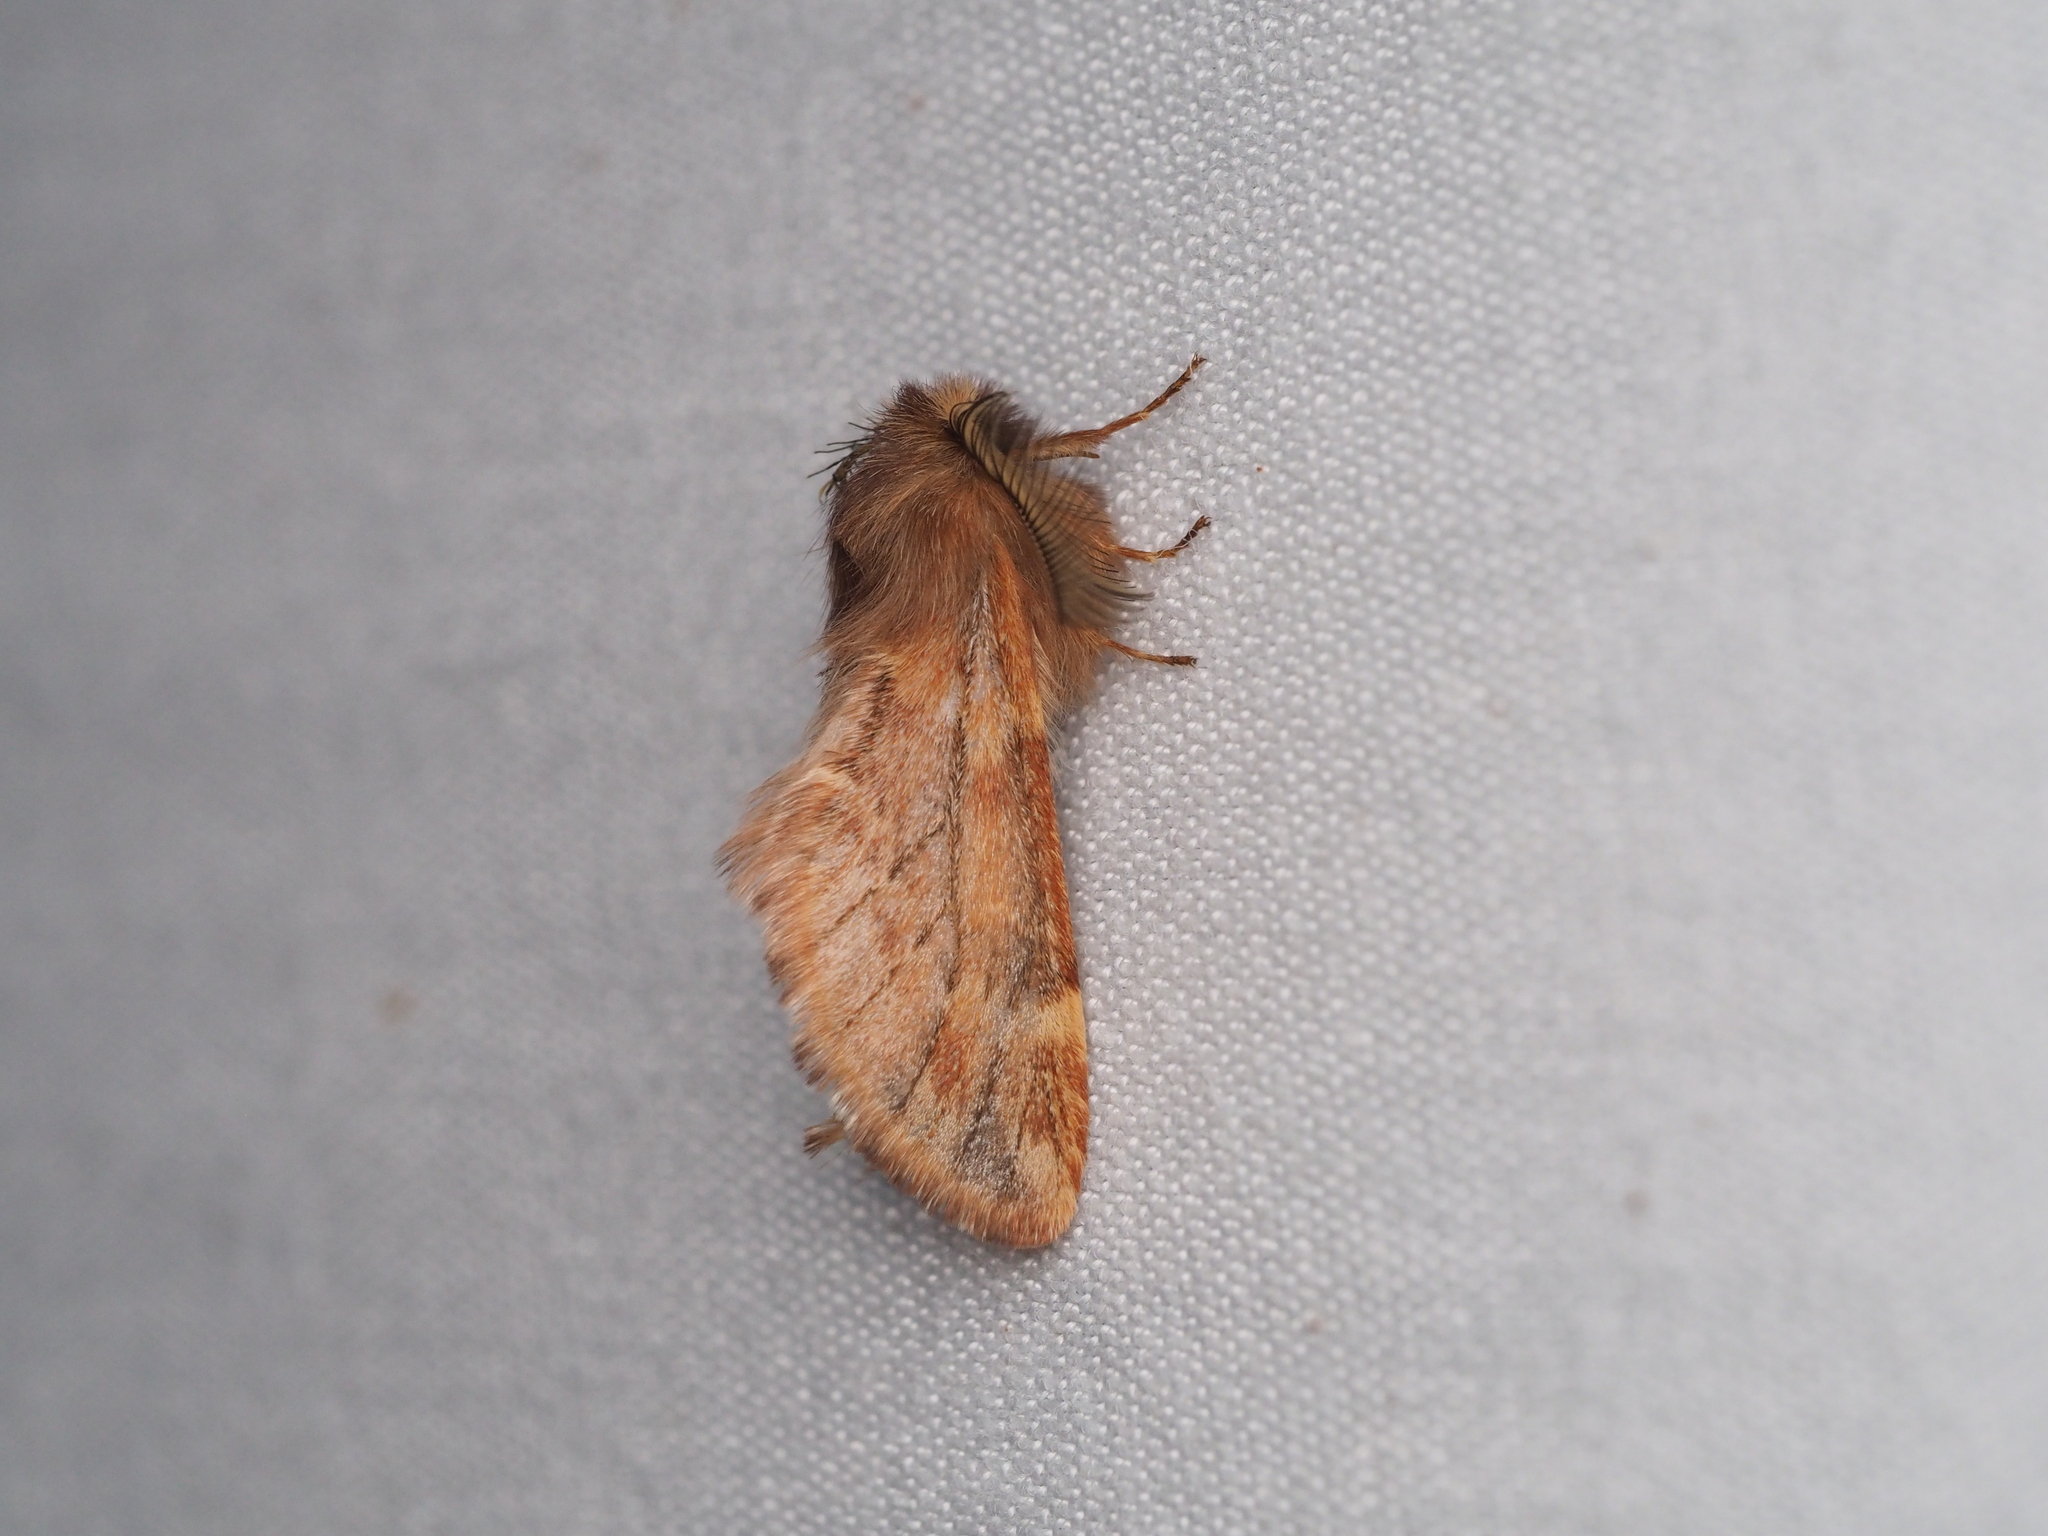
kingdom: Animalia
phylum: Arthropoda
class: Insecta
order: Lepidoptera
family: Notodontidae
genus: Ptilophora
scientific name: Ptilophora plumigera
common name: Plumed prominent
